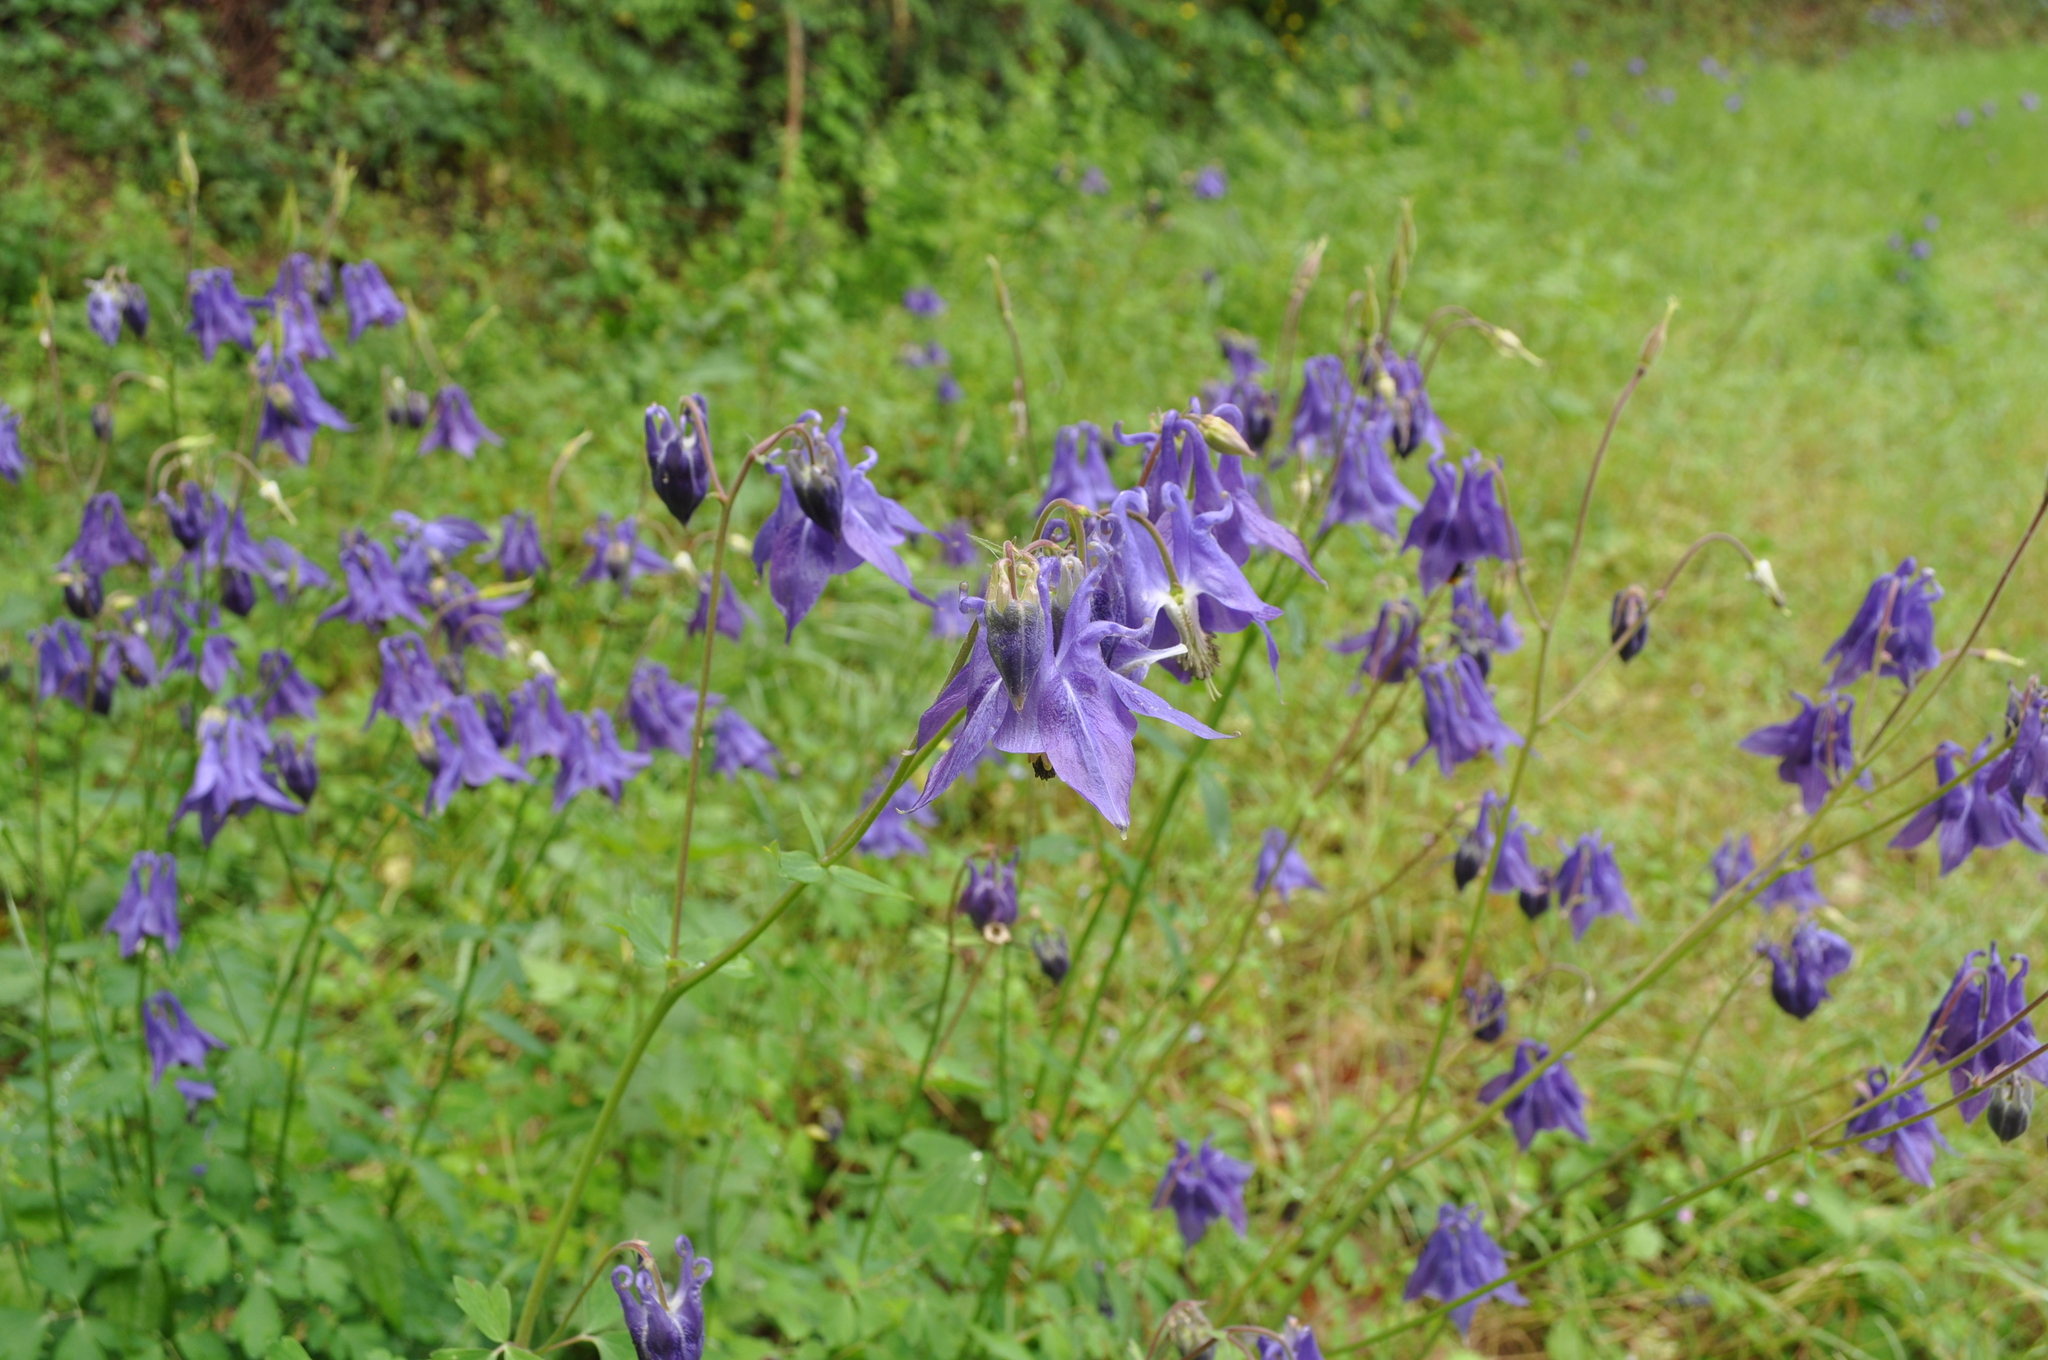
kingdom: Plantae
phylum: Tracheophyta
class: Magnoliopsida
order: Ranunculales
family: Ranunculaceae
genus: Aquilegia
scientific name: Aquilegia vulgaris
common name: Columbine
